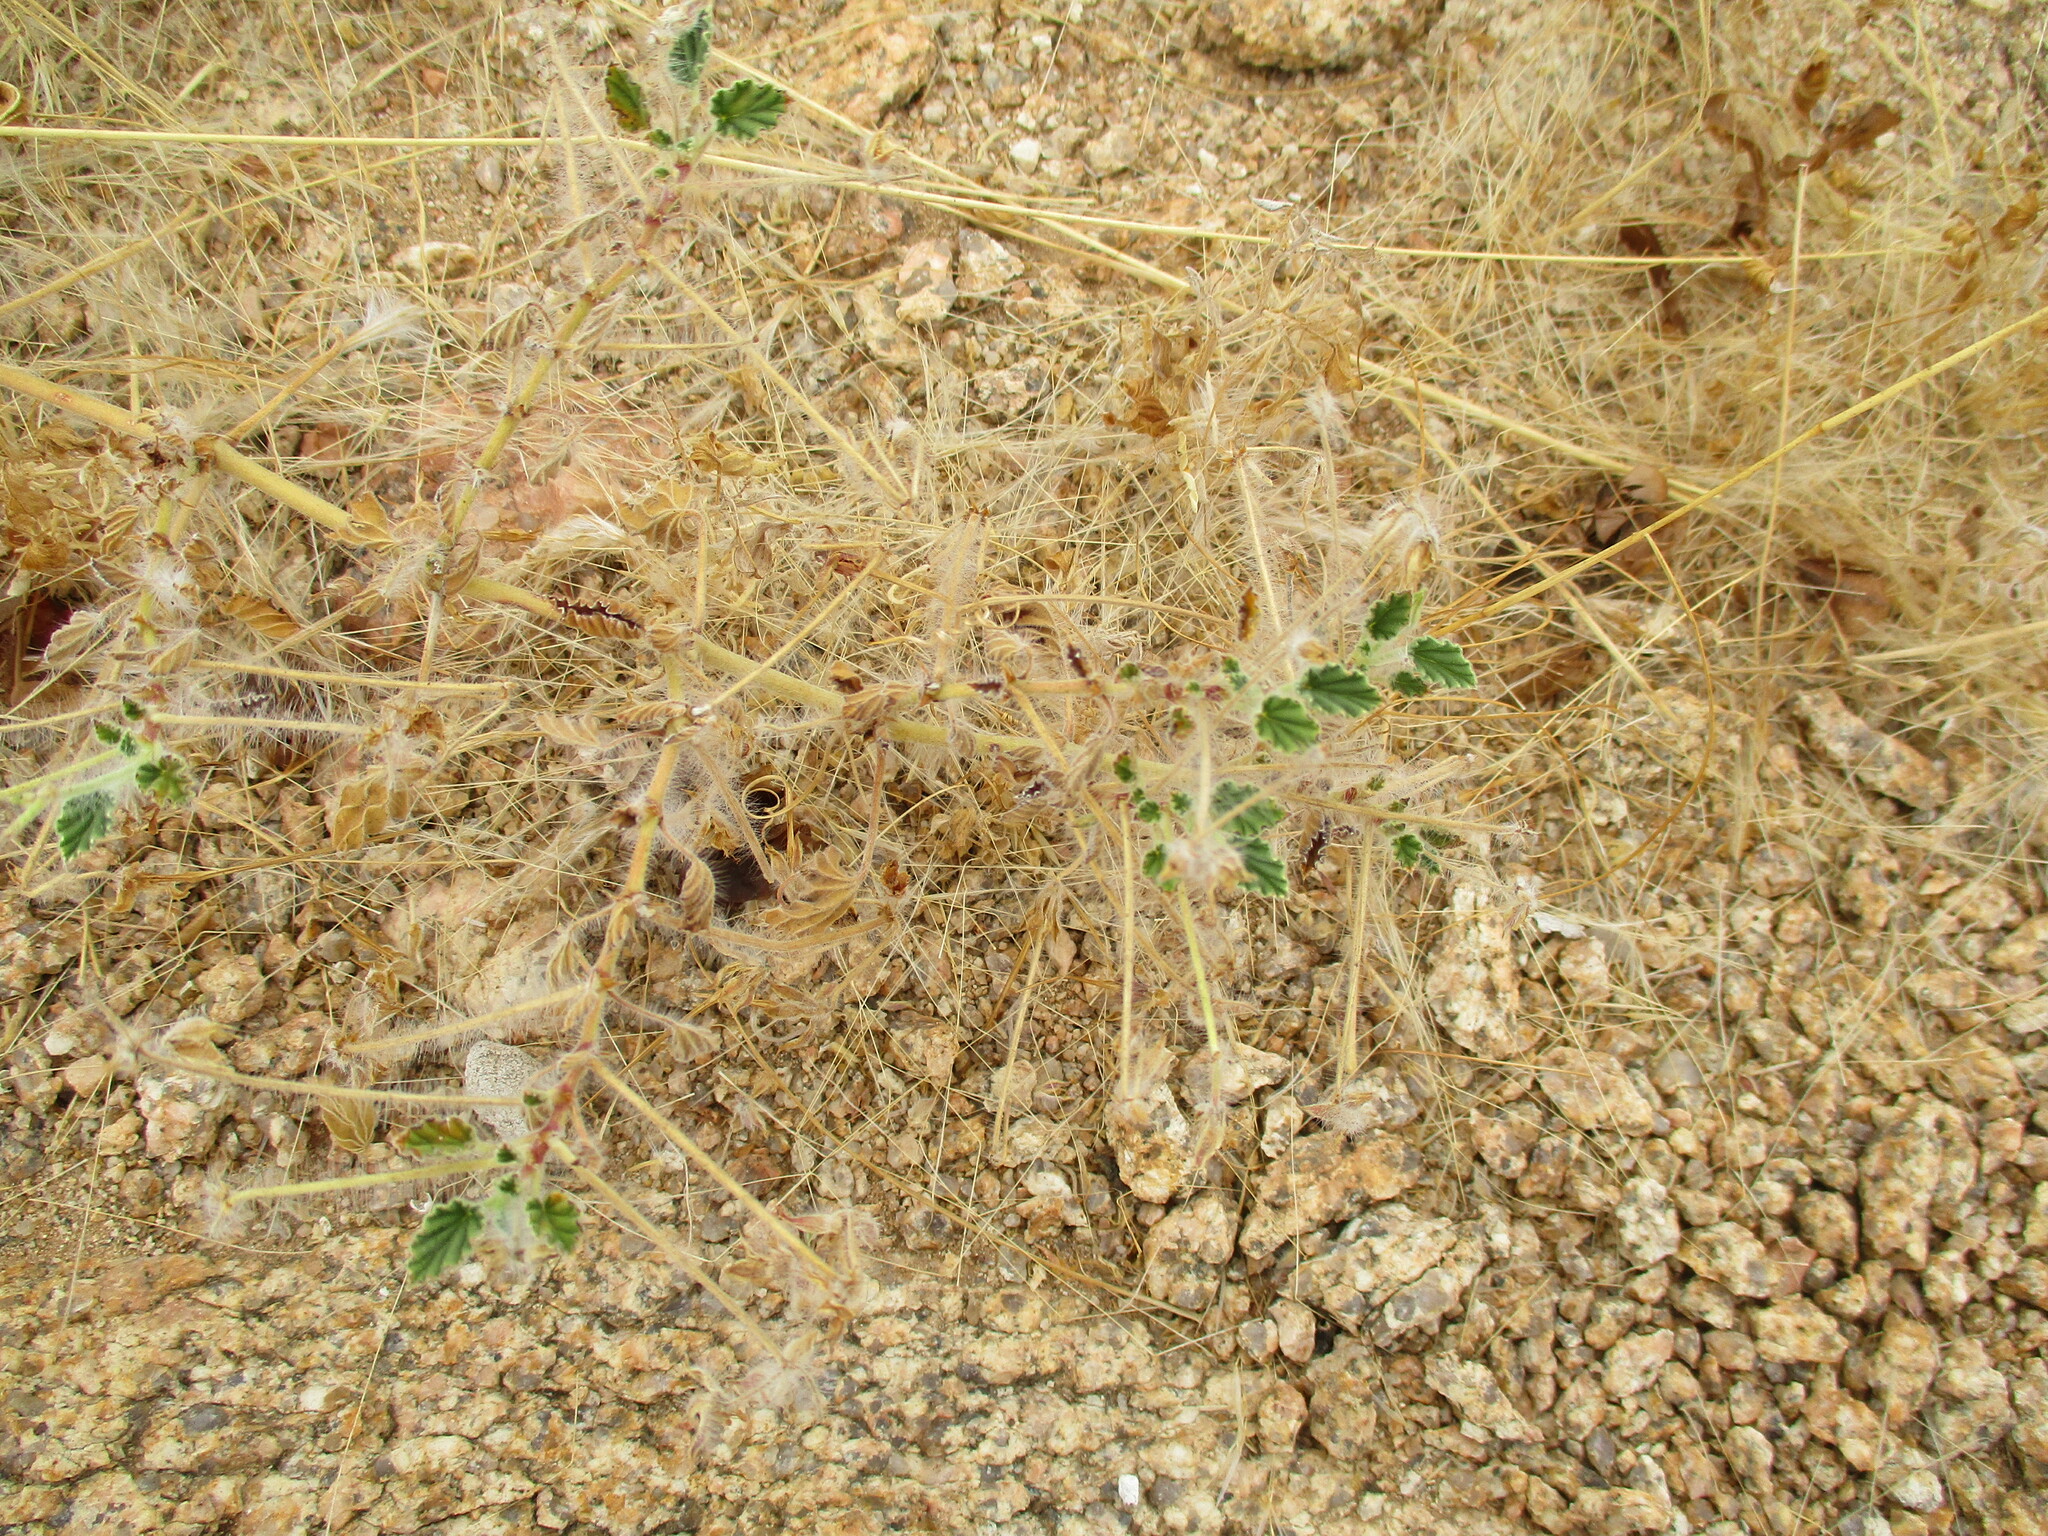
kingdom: Plantae
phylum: Tracheophyta
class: Magnoliopsida
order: Geraniales
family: Geraniaceae
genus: Monsonia
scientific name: Monsonia umbellata
